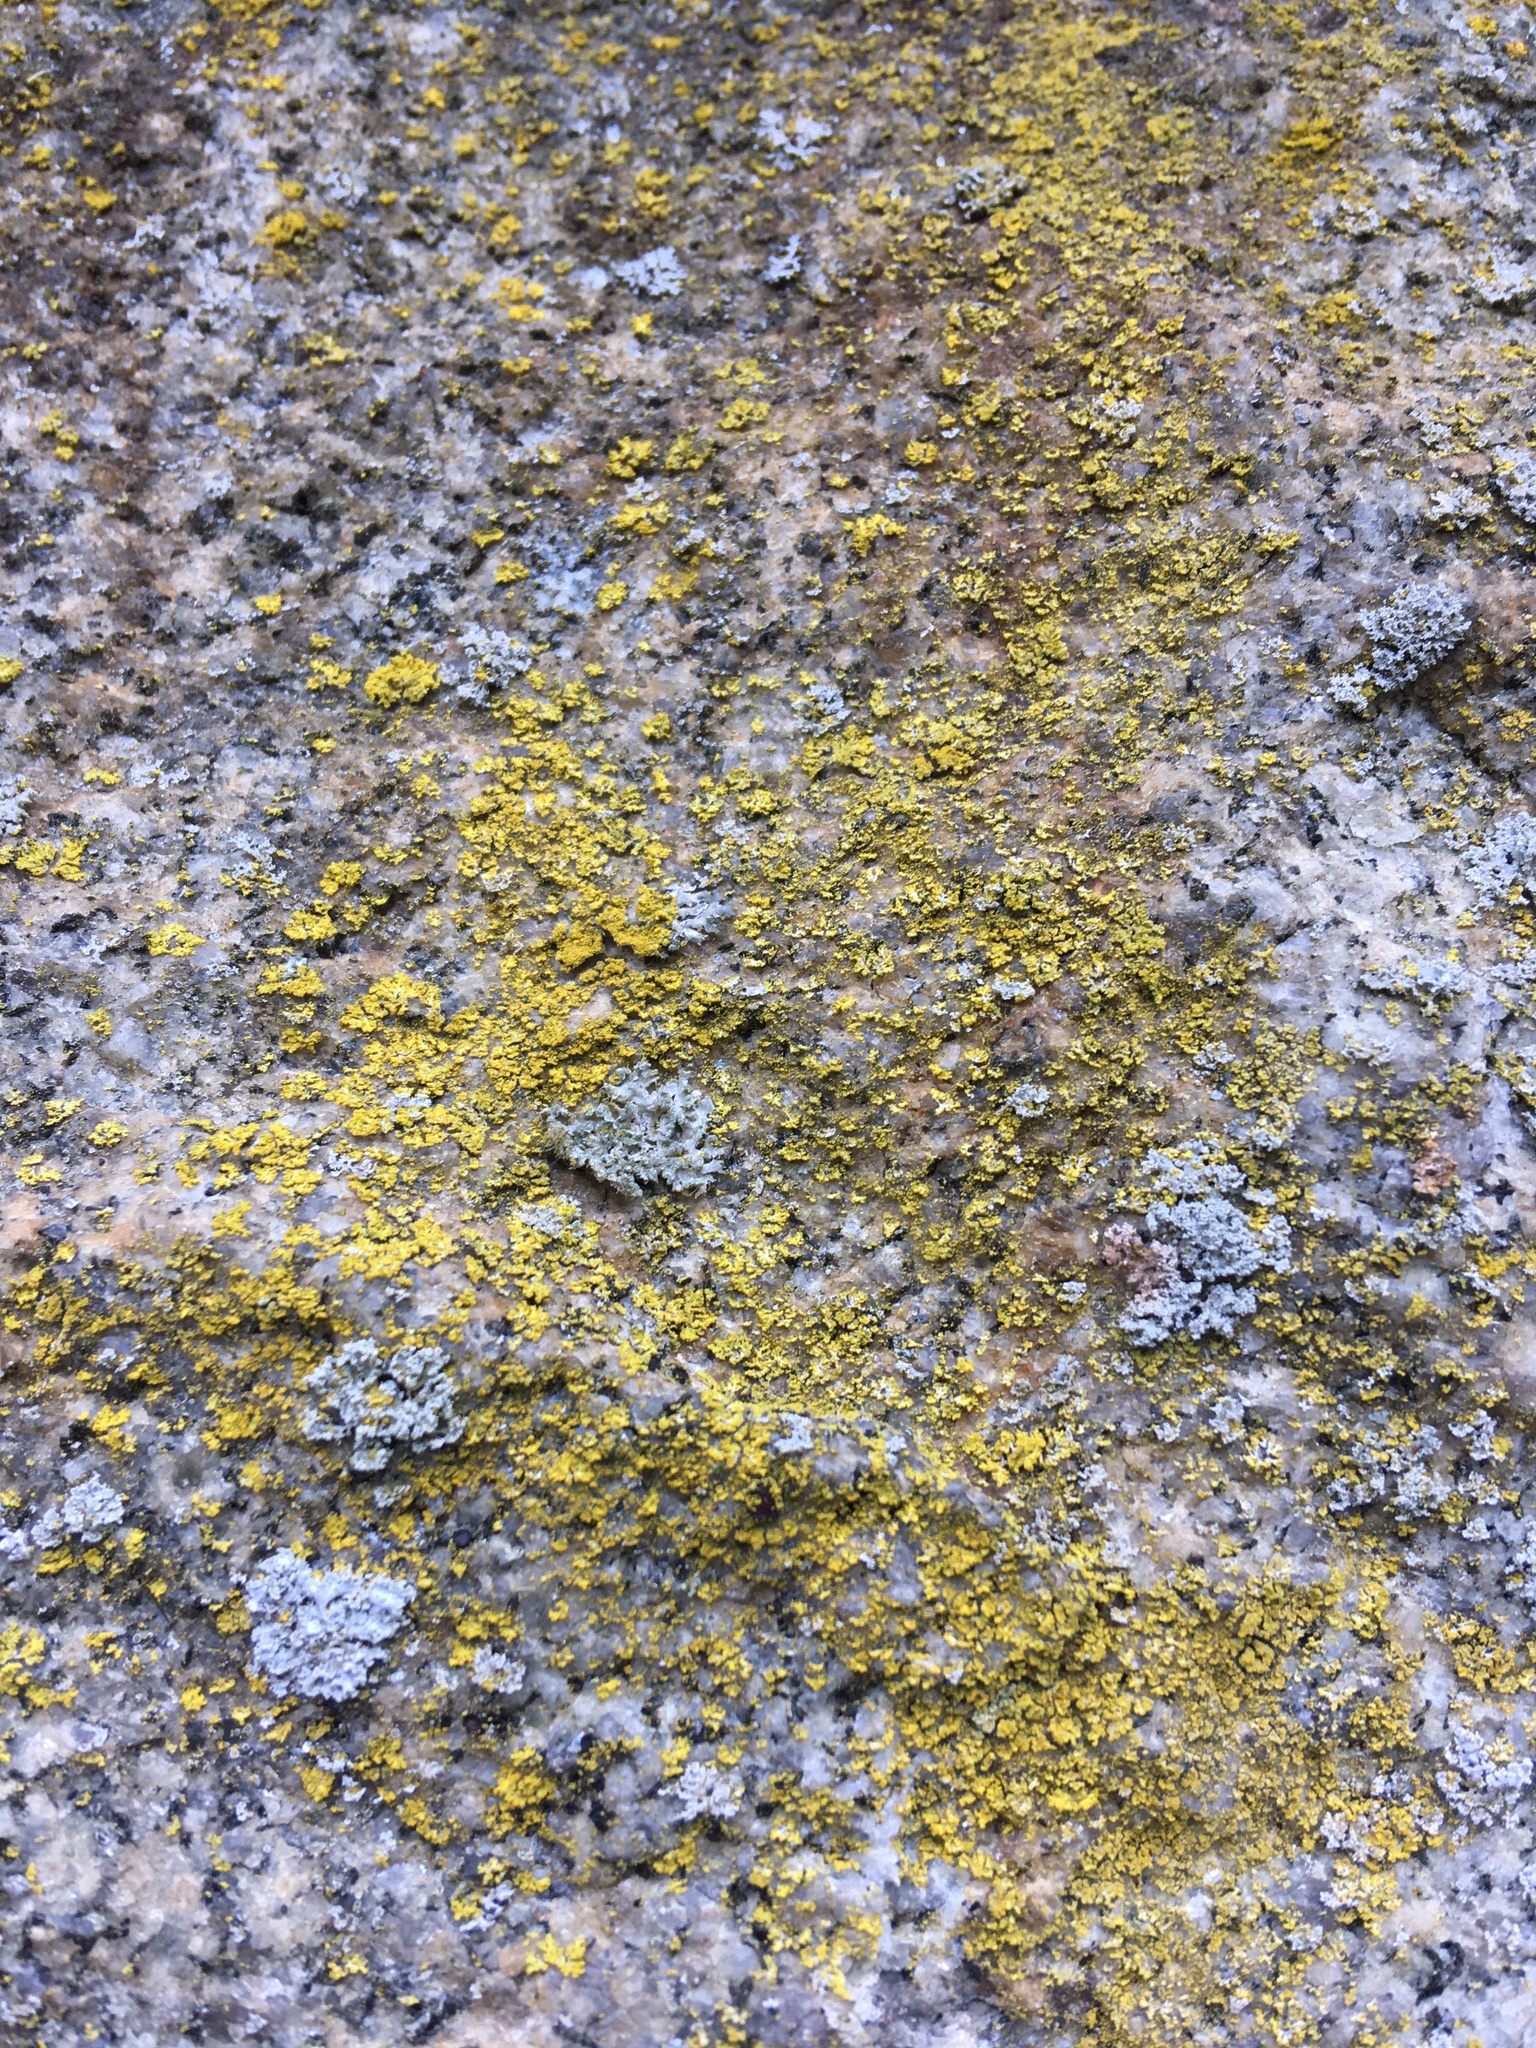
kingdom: Fungi
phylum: Ascomycota
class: Candelariomycetes
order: Candelariales
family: Candelariaceae
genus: Candelaria
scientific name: Candelaria concolor
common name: Candleflame lichen
